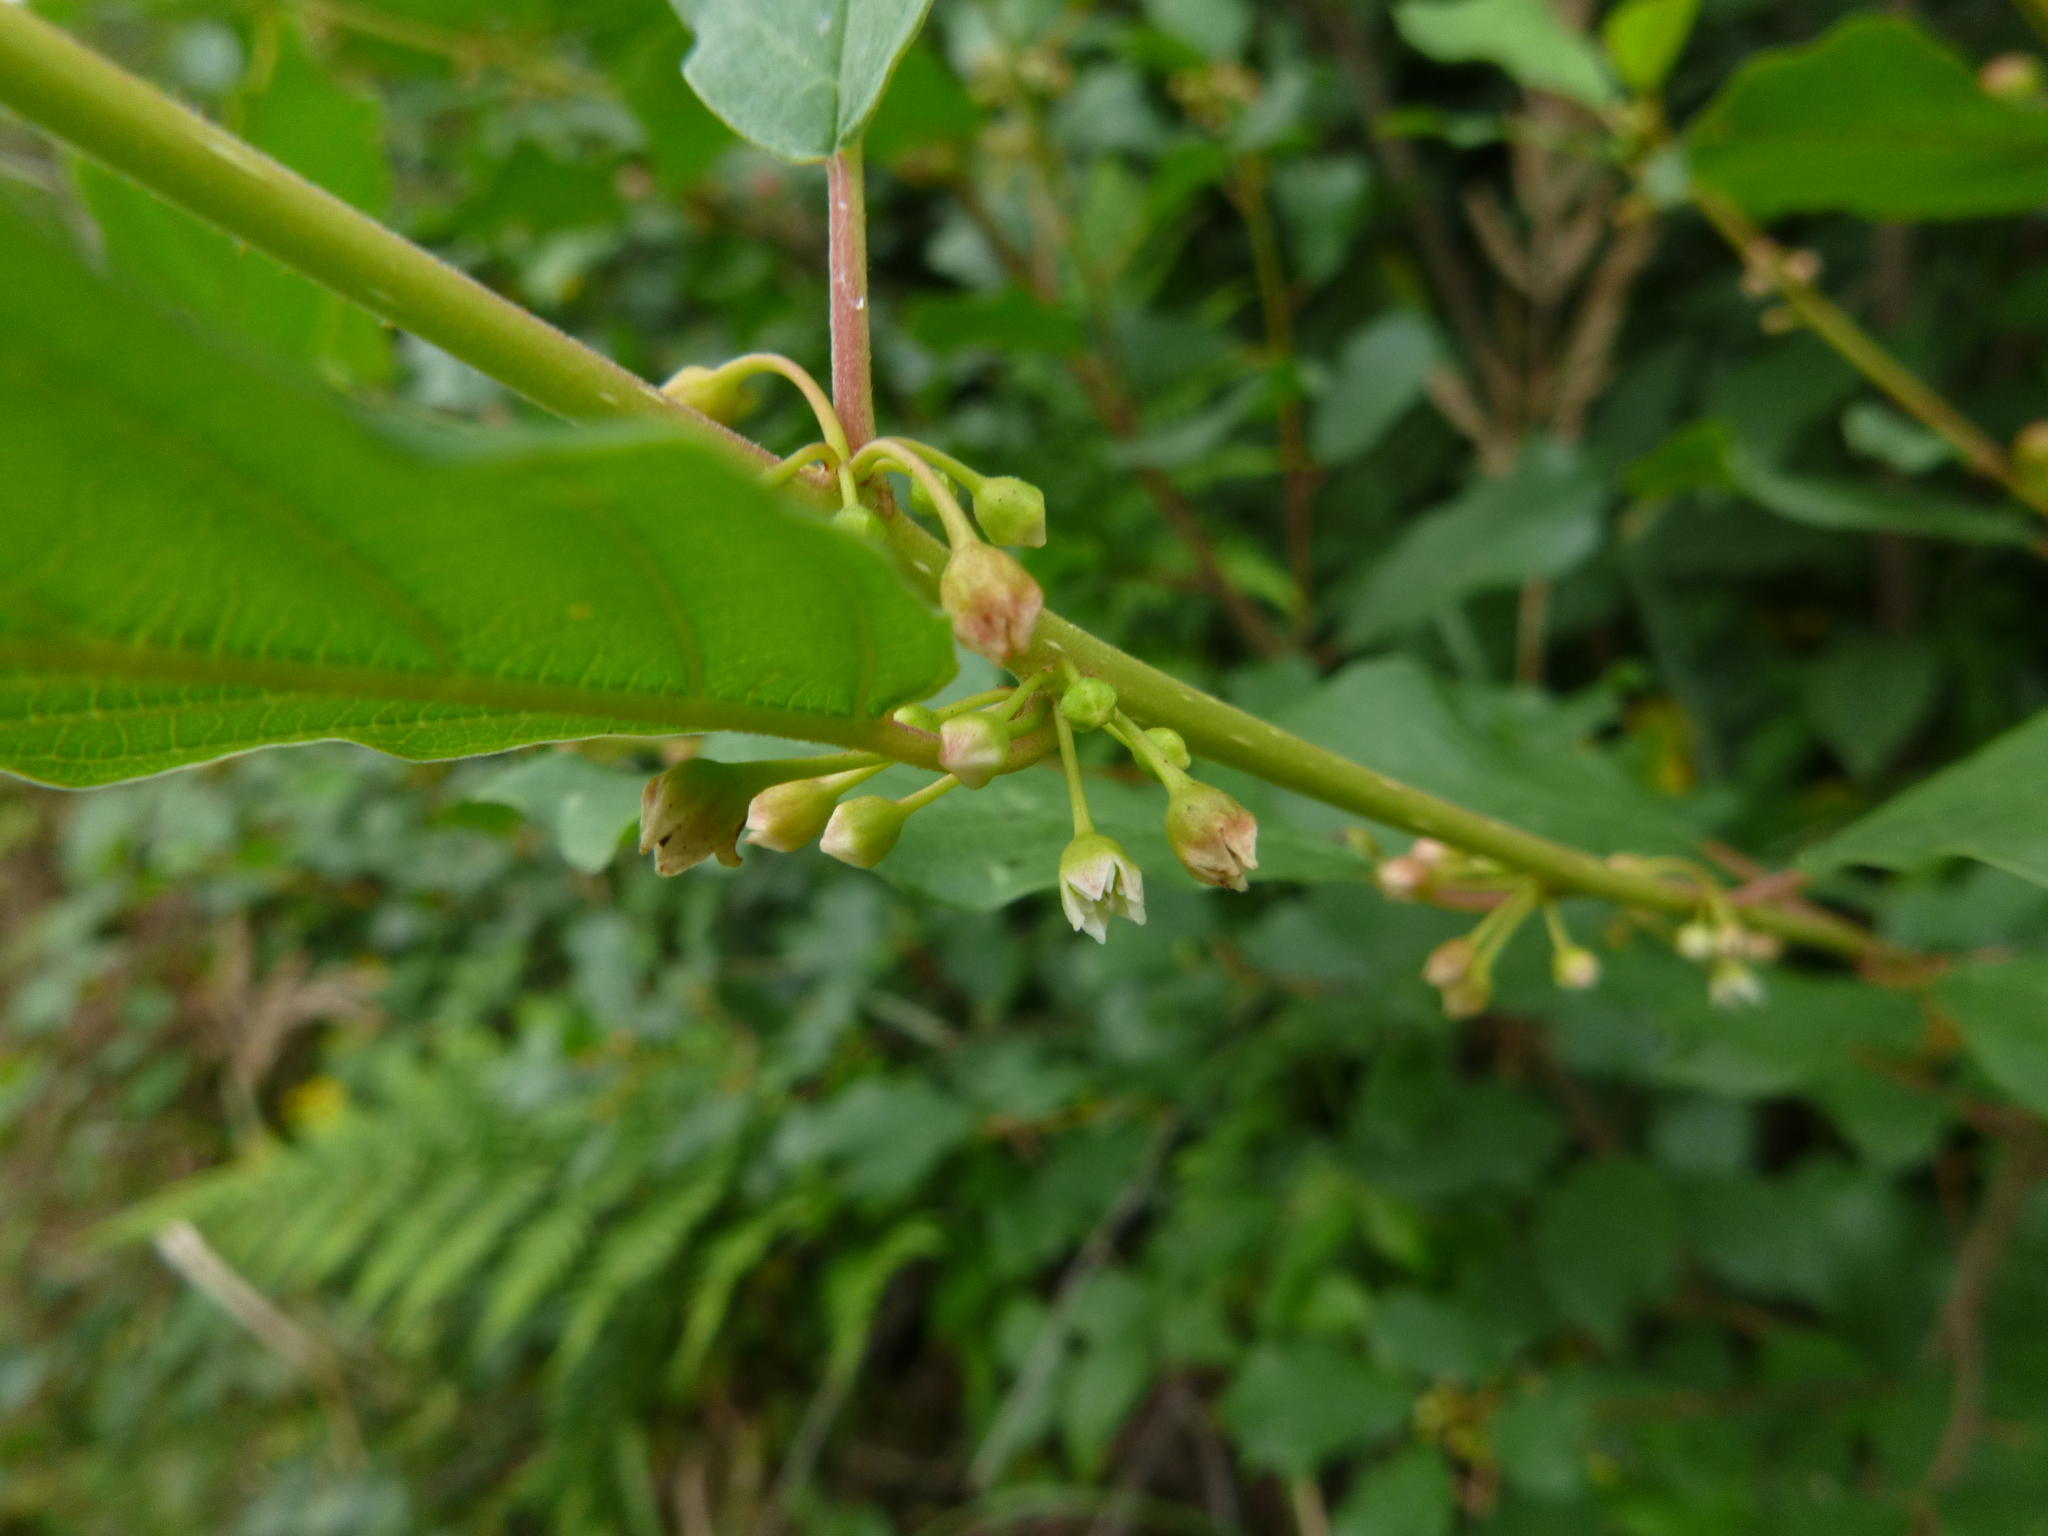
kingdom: Plantae
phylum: Tracheophyta
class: Magnoliopsida
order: Rosales
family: Rhamnaceae
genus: Frangula
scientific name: Frangula alnus
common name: Alder buckthorn
